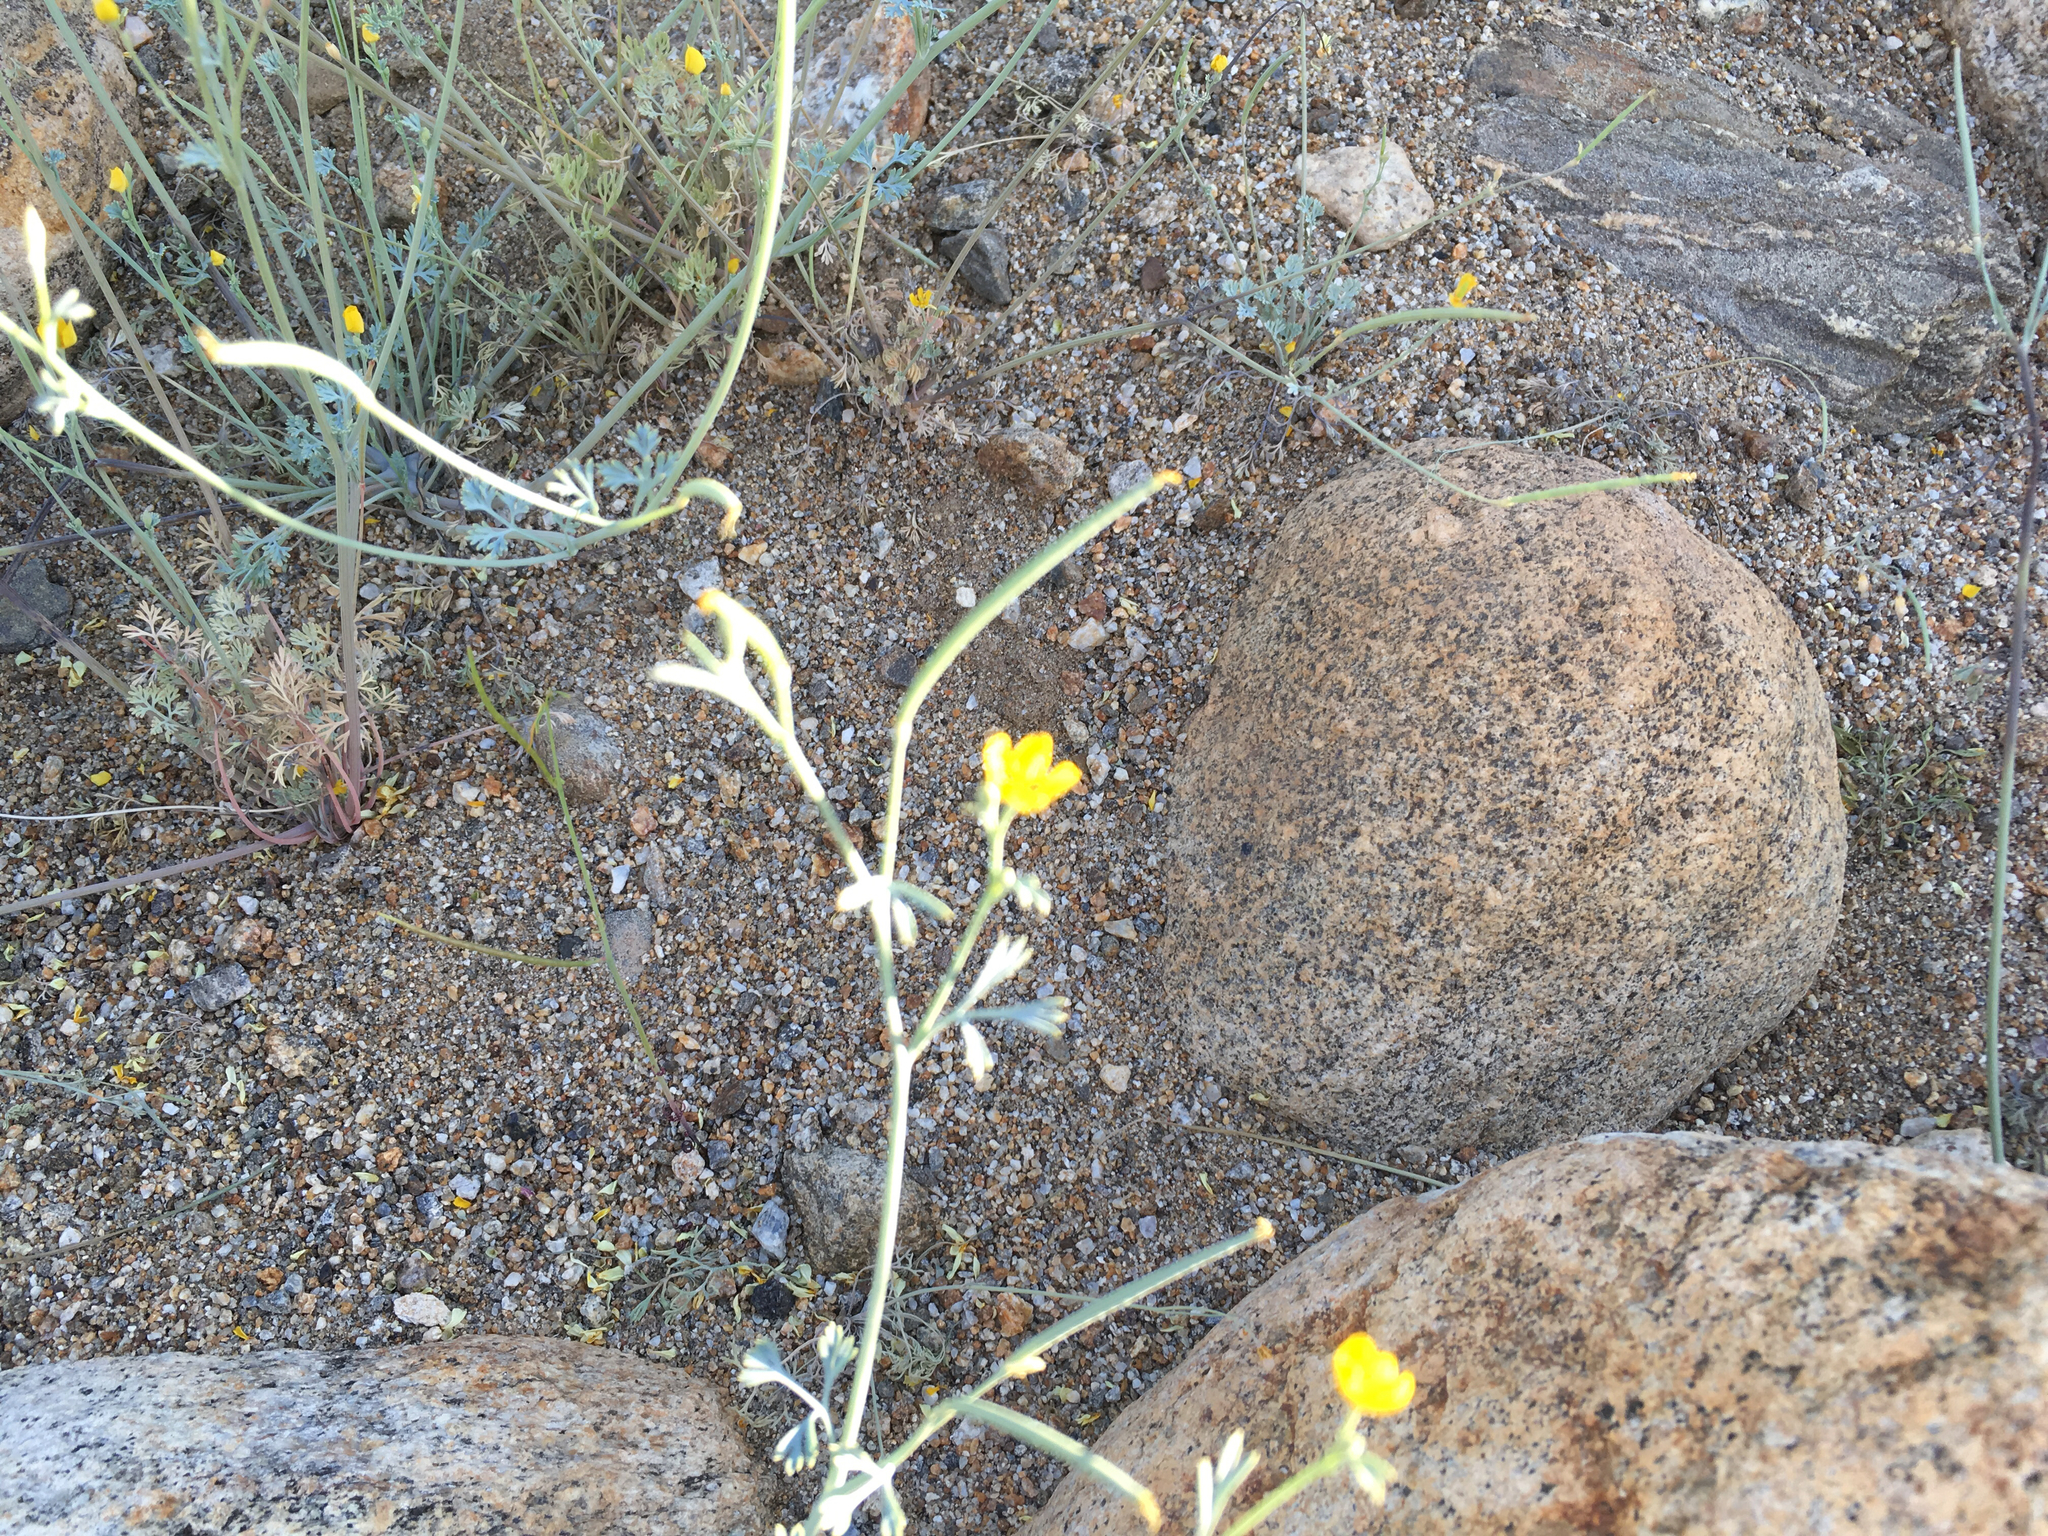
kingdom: Plantae
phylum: Tracheophyta
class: Magnoliopsida
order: Ranunculales
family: Papaveraceae
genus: Eschscholzia
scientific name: Eschscholzia minutiflora
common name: Small-flower california-poppy
